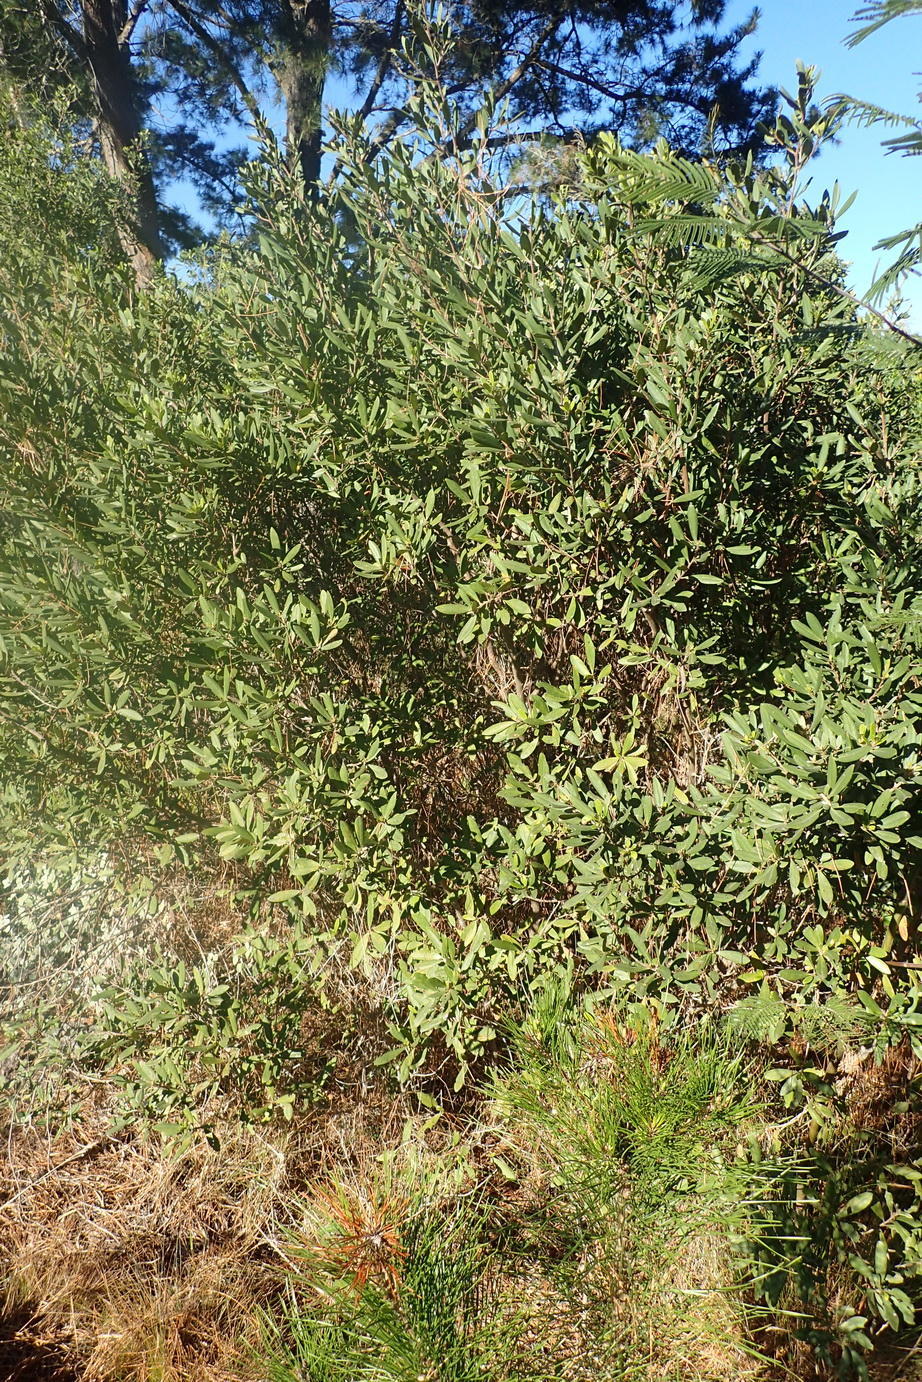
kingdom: Plantae
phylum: Tracheophyta
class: Magnoliopsida
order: Ericales
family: Ebenaceae
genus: Diospyros
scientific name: Diospyros dichrophylla
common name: Common star-apple
